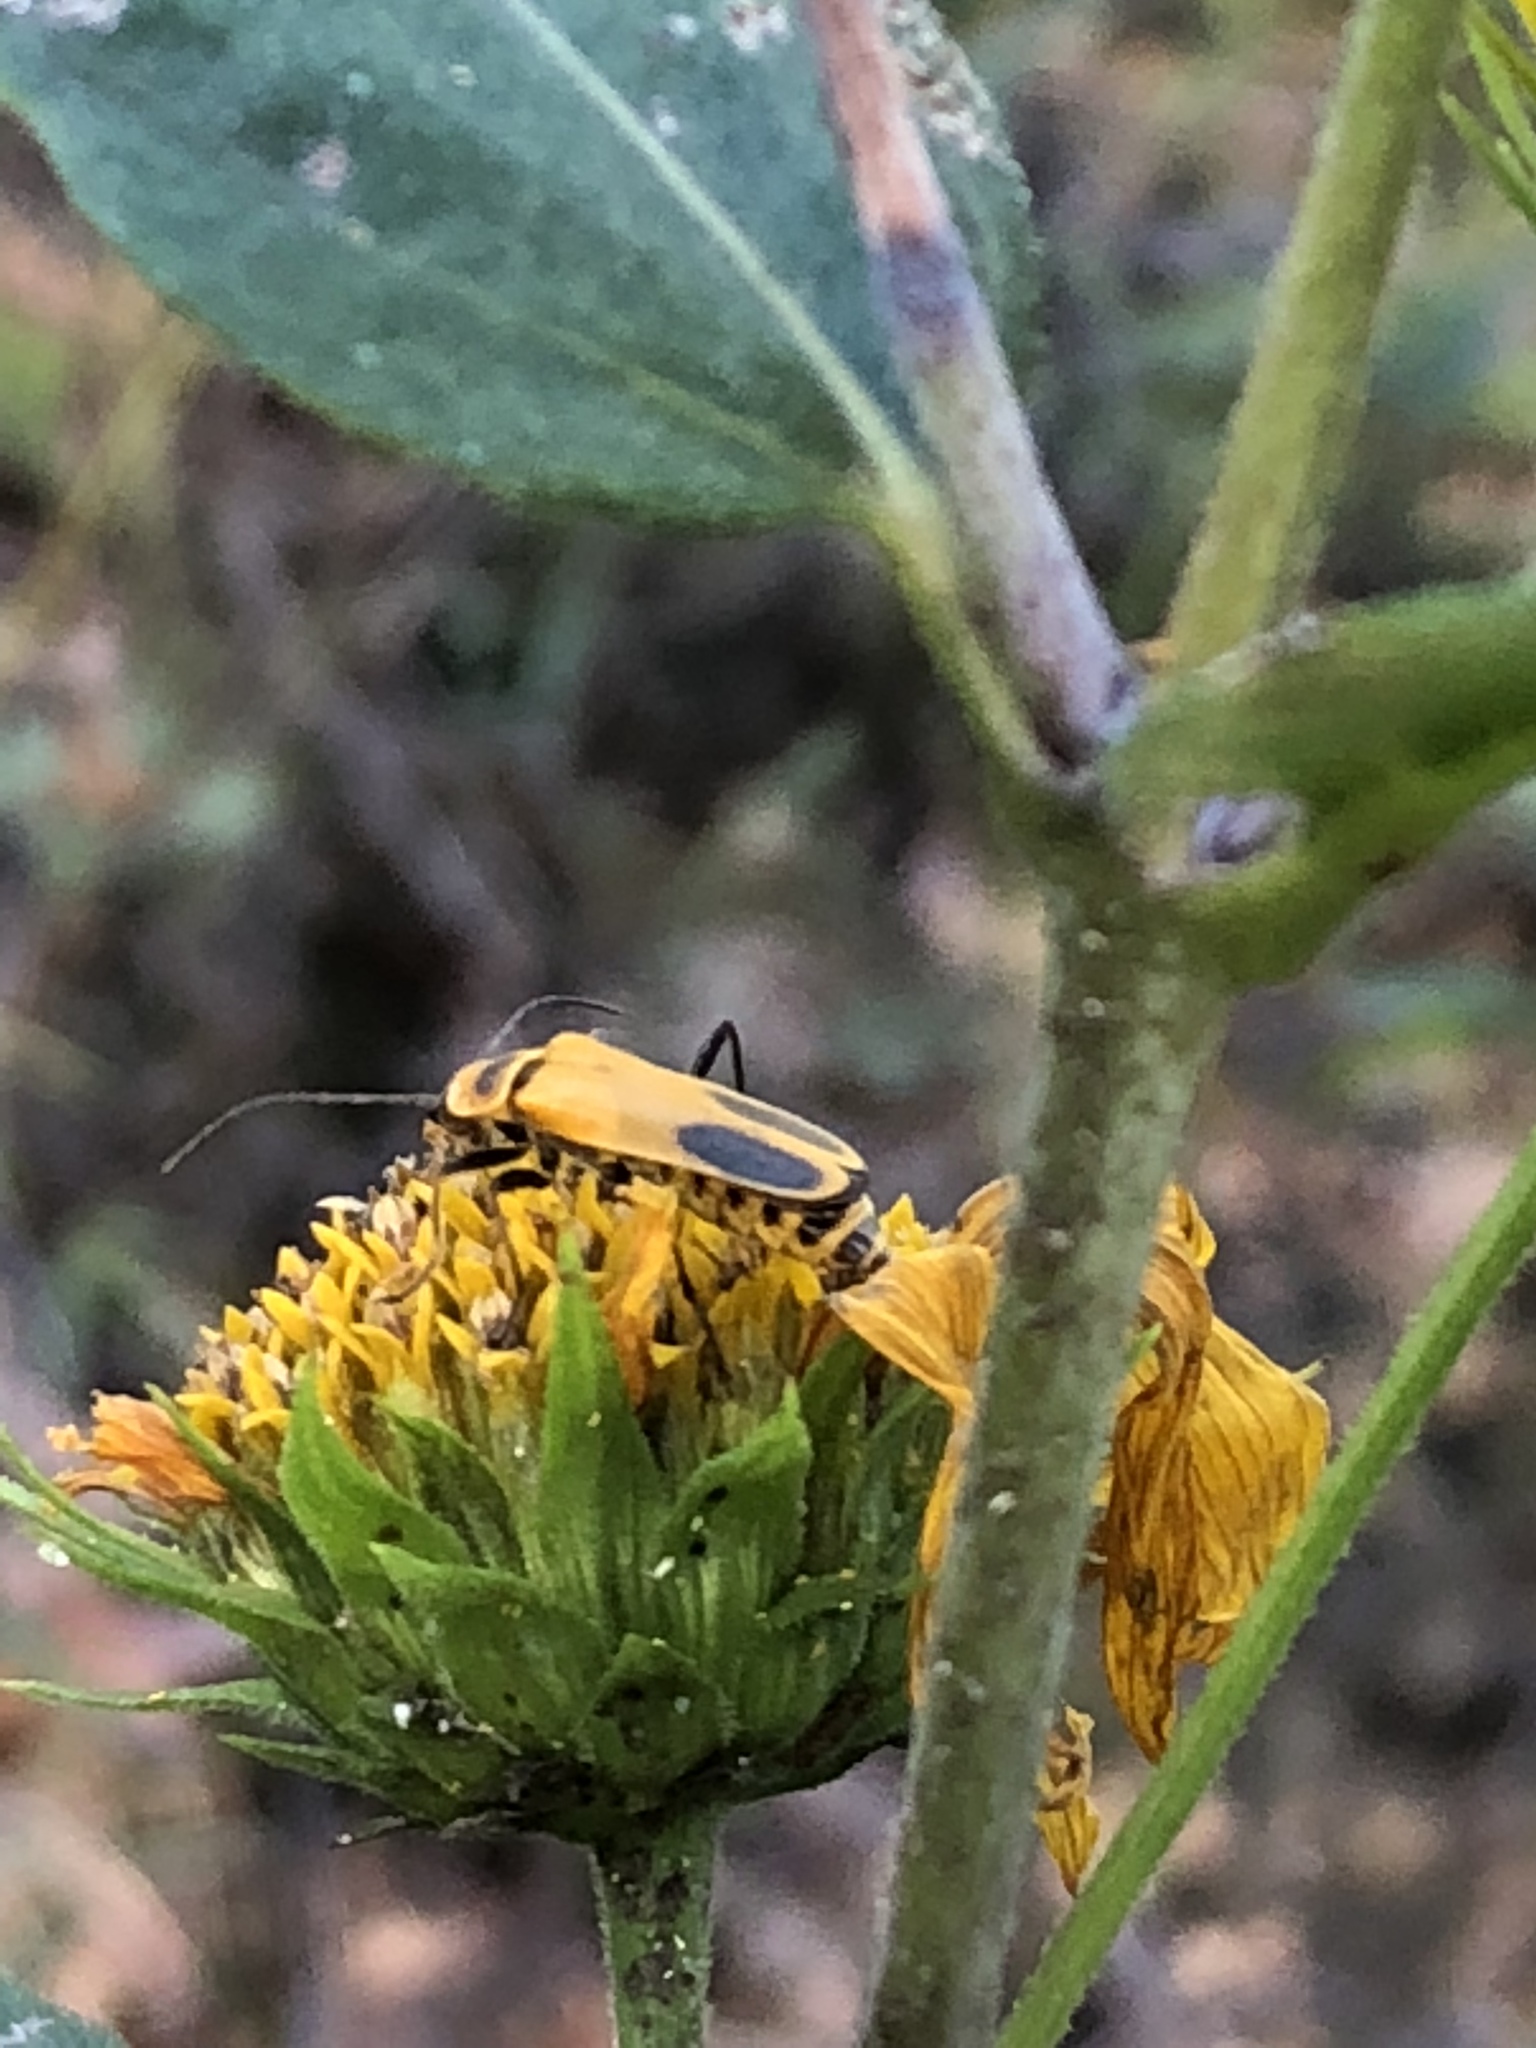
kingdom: Animalia
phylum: Arthropoda
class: Insecta
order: Coleoptera
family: Cantharidae
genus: Chauliognathus
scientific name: Chauliognathus pensylvanicus
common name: Goldenrod soldier beetle
